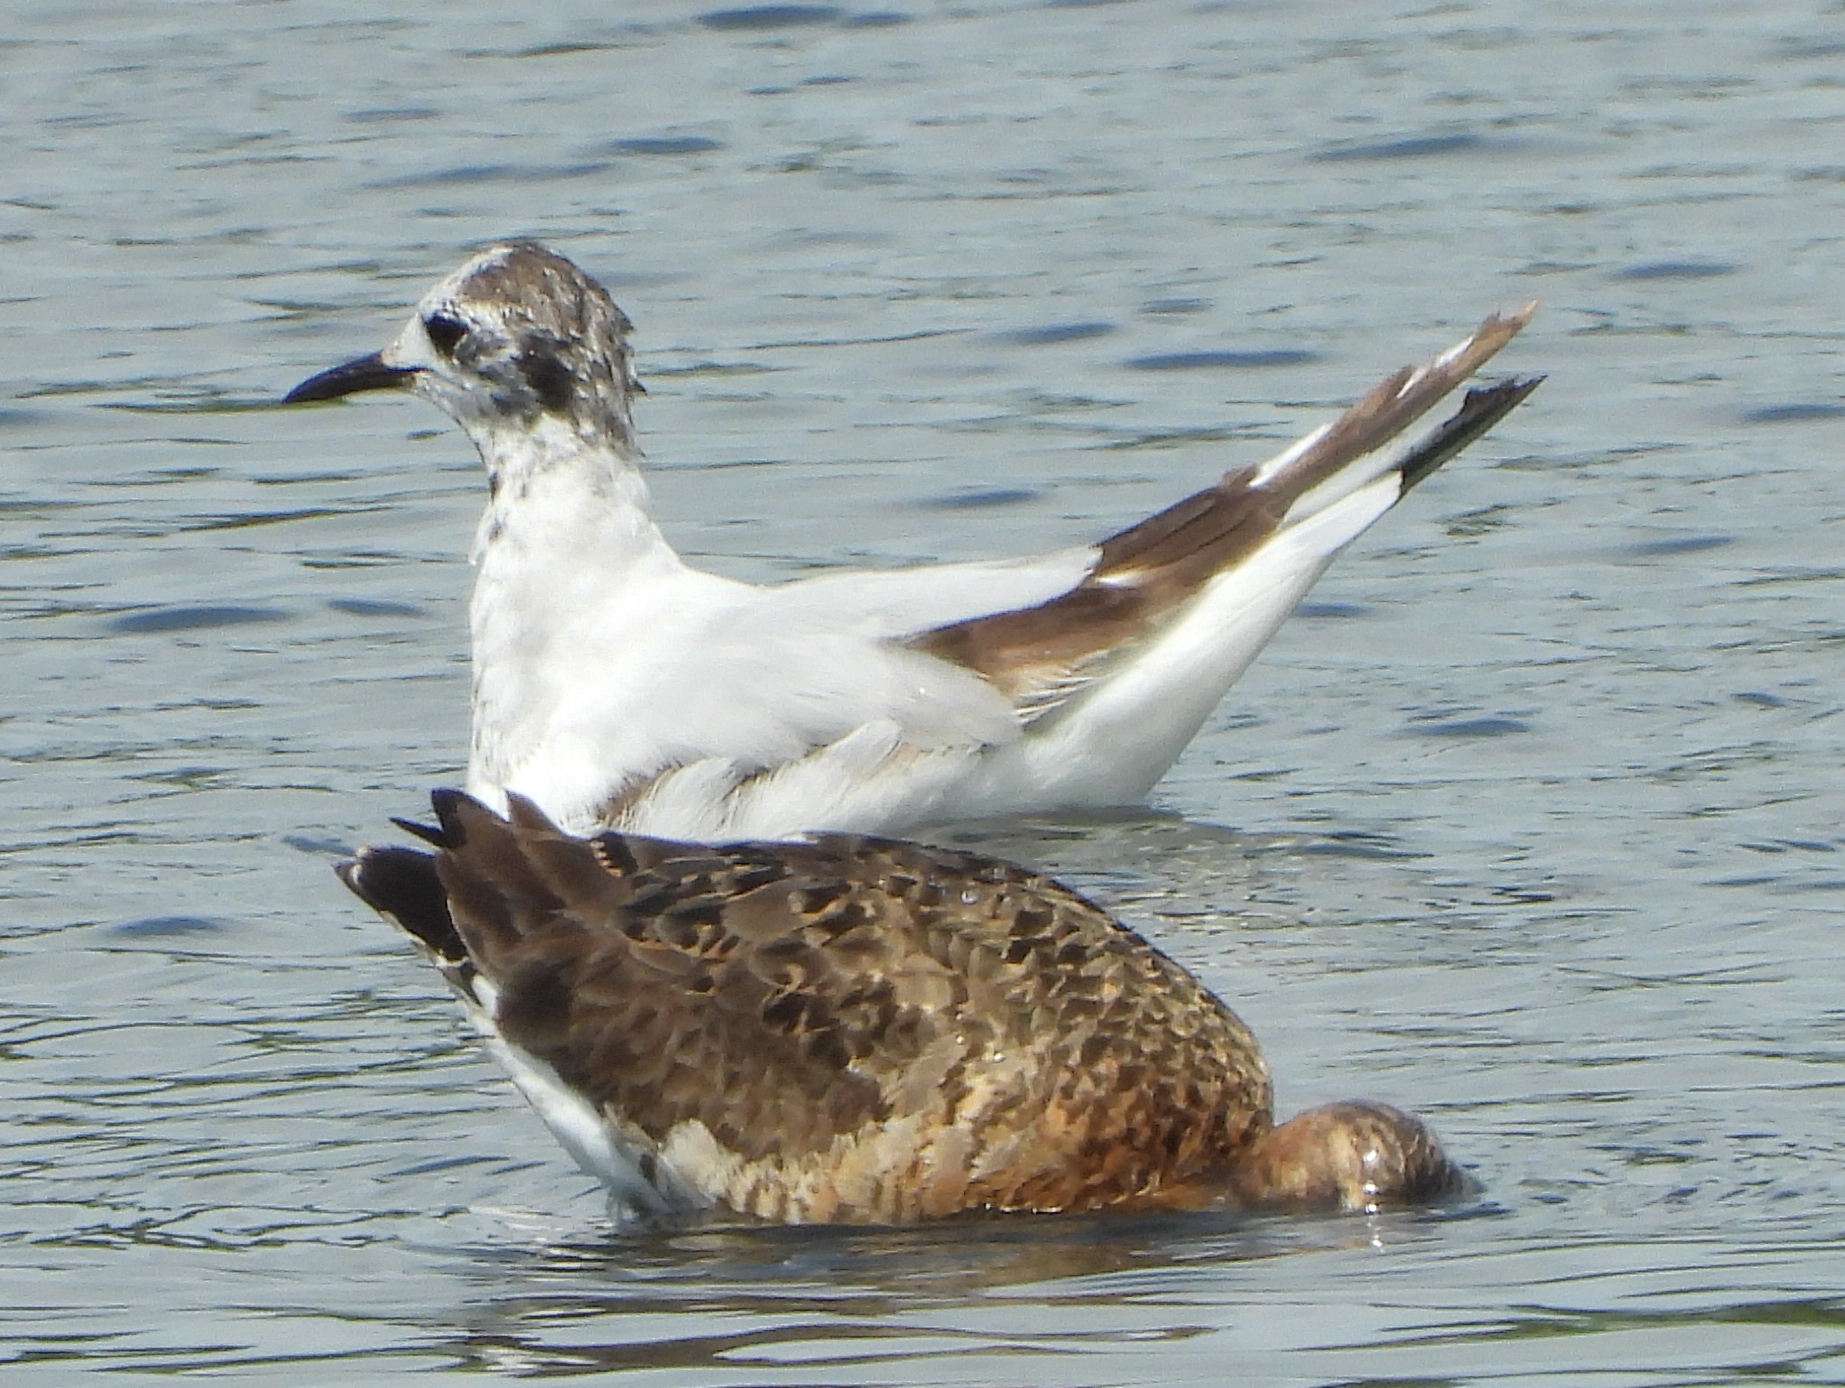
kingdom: Animalia
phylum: Chordata
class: Aves
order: Charadriiformes
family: Laridae
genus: Chroicocephalus
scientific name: Chroicocephalus ridibundus
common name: Black-headed gull
